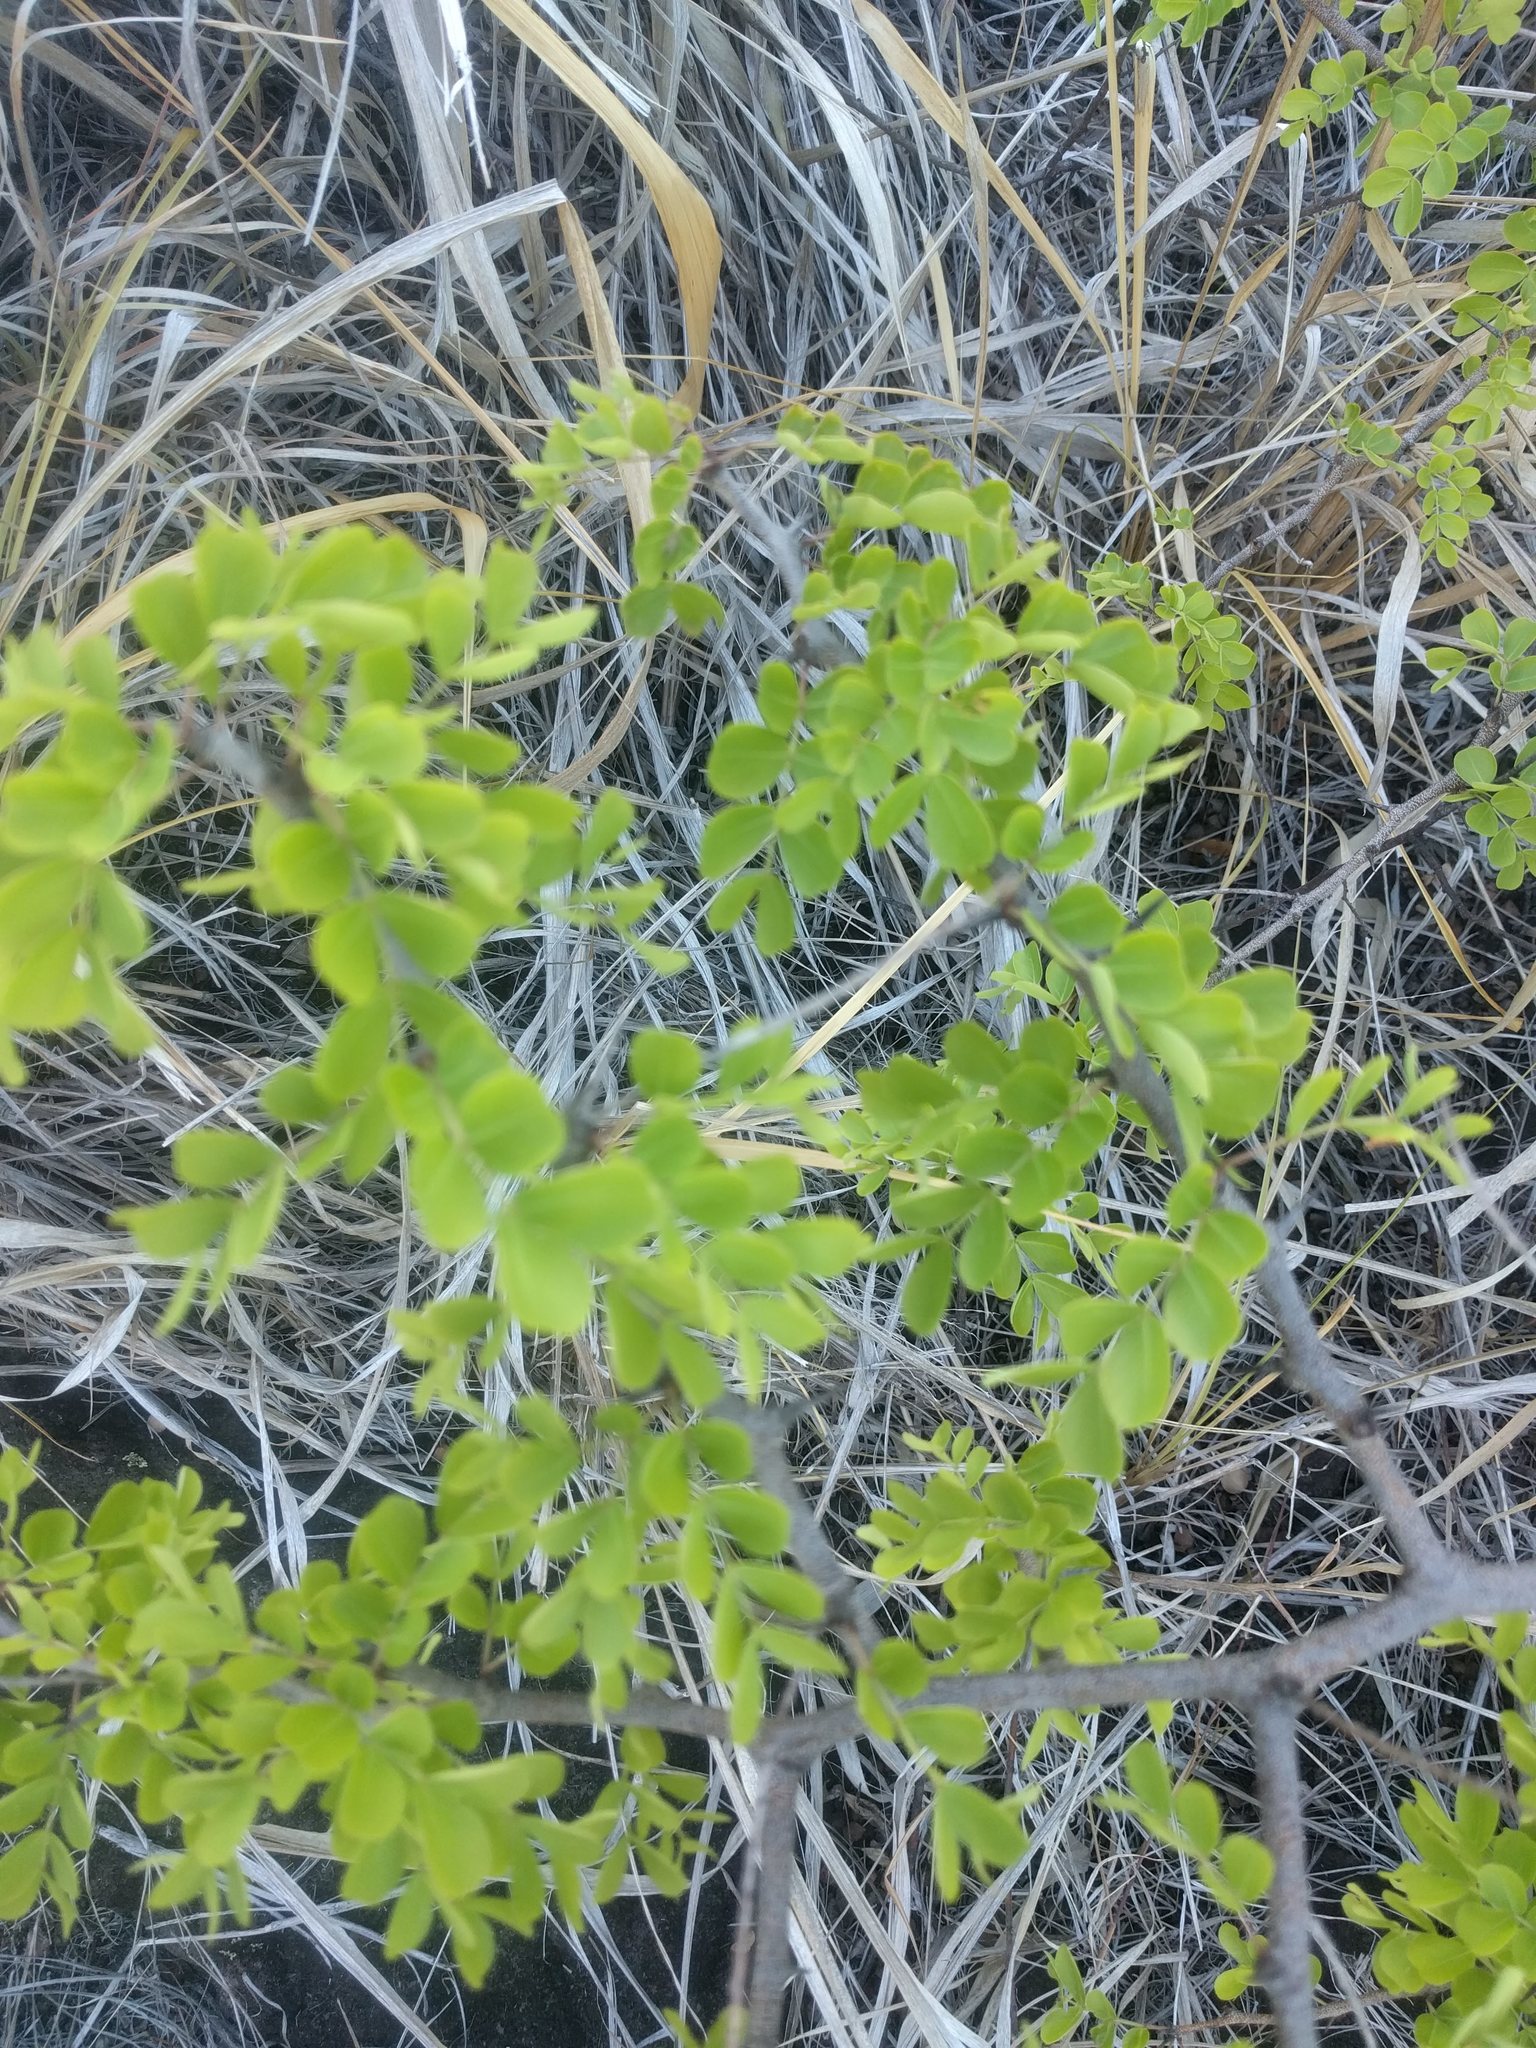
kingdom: Plantae
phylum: Tracheophyta
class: Magnoliopsida
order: Fabales
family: Fabaceae
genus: Haematoxylum
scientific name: Haematoxylum campechianum
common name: Logwood
